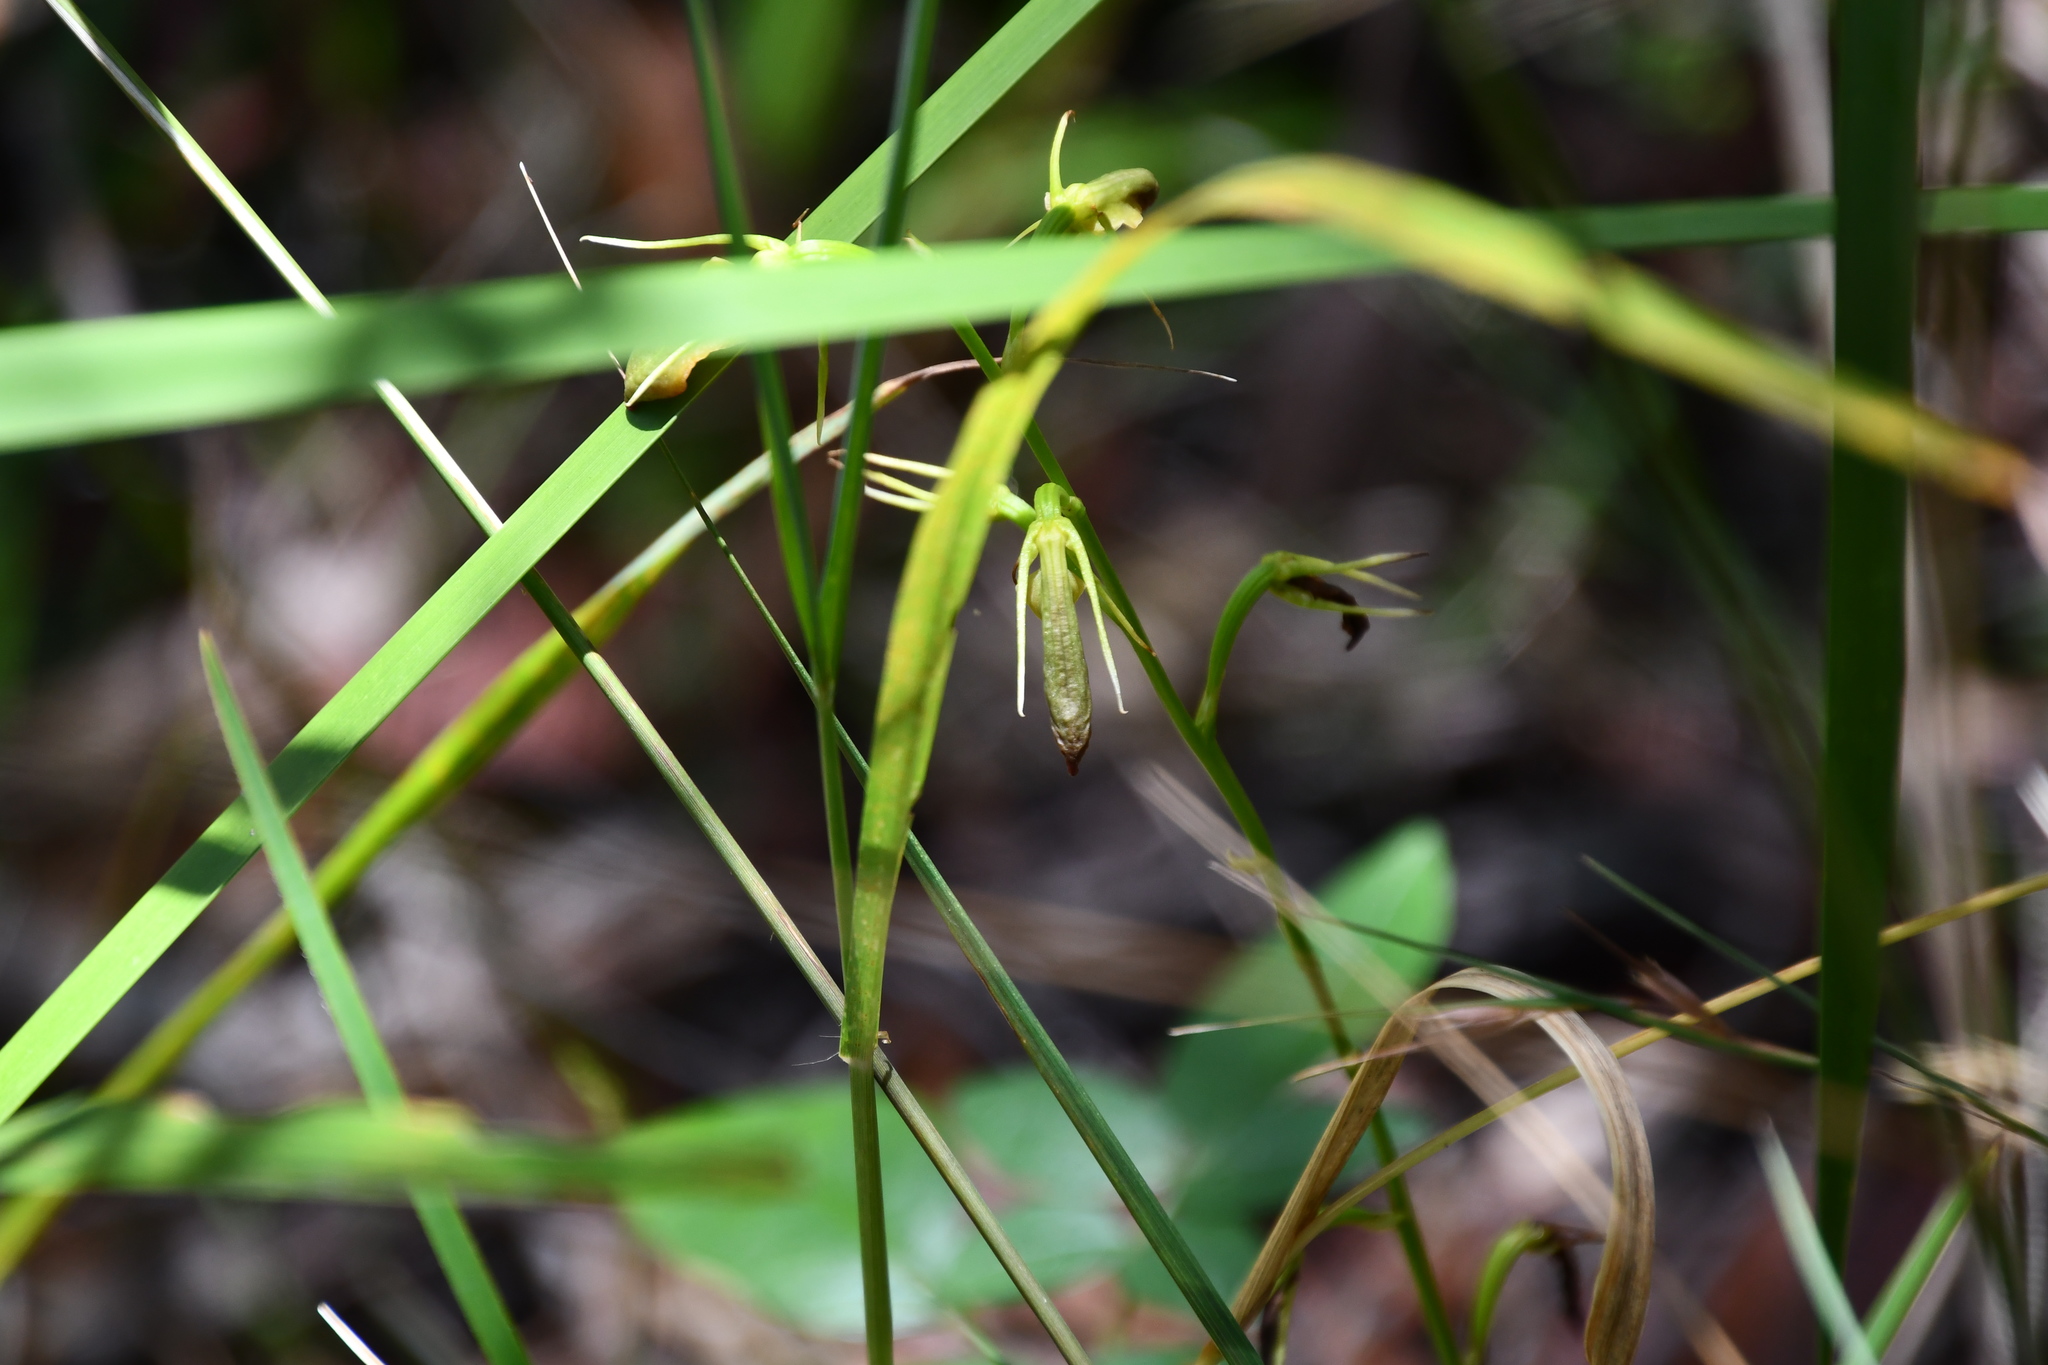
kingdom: Plantae
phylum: Tracheophyta
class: Liliopsida
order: Asparagales
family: Orchidaceae
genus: Cryptostylis
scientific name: Cryptostylis subulata
